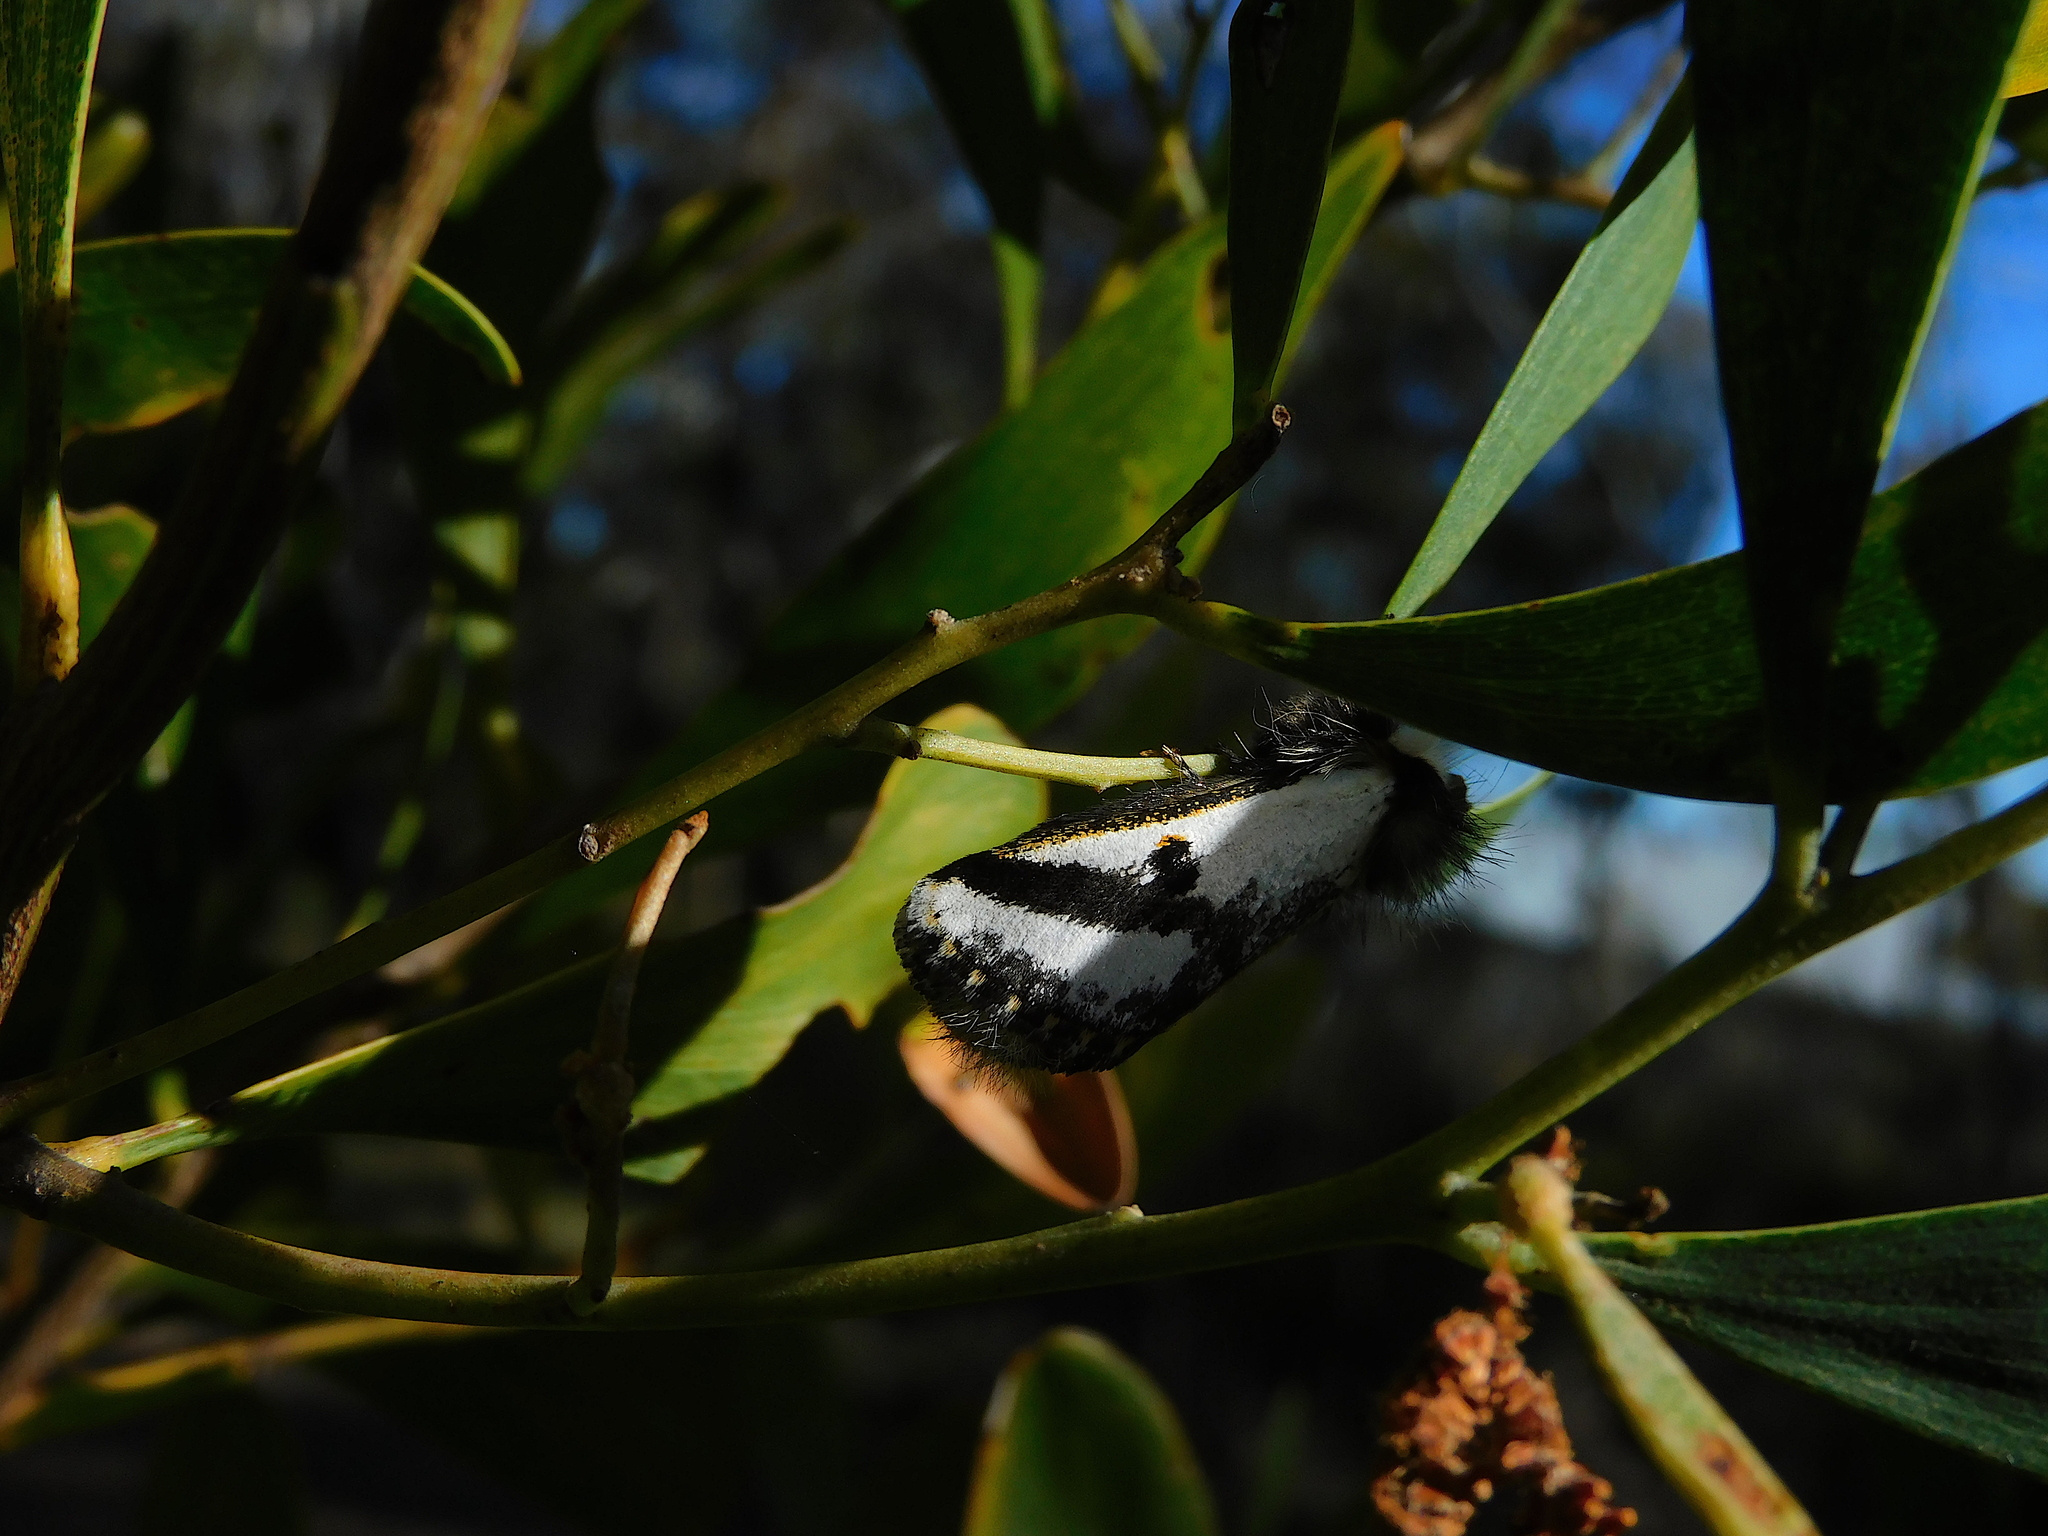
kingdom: Animalia
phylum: Arthropoda
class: Insecta
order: Lepidoptera
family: Notodontidae
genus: Epicoma
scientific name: Epicoma melanospila
